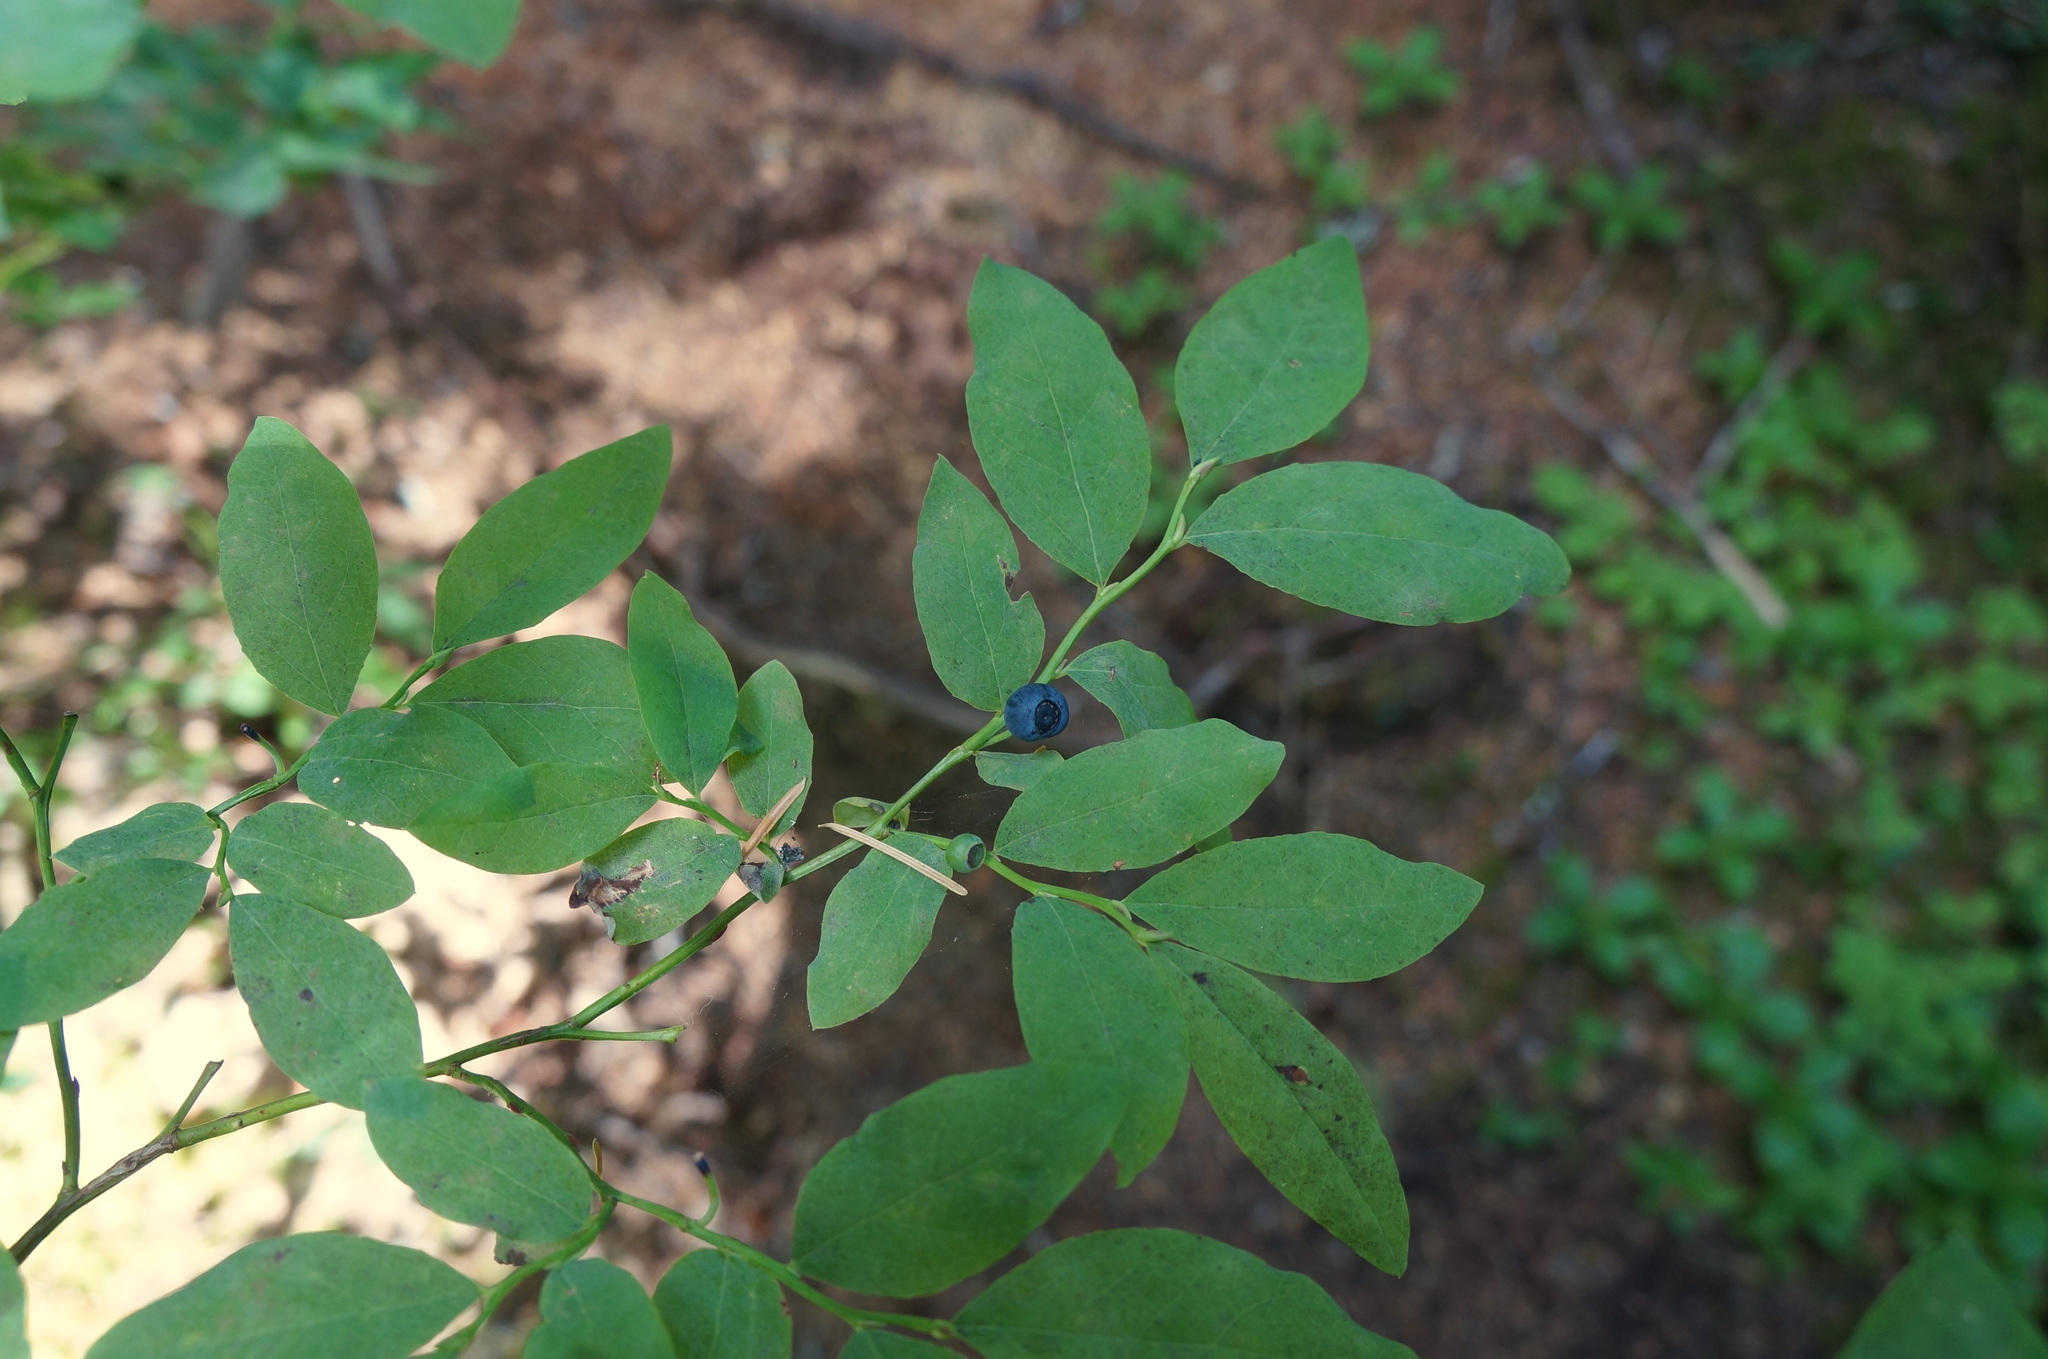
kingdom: Plantae
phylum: Tracheophyta
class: Magnoliopsida
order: Ericales
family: Ericaceae
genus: Vaccinium
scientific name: Vaccinium ovalifolium
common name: Early blueberry
